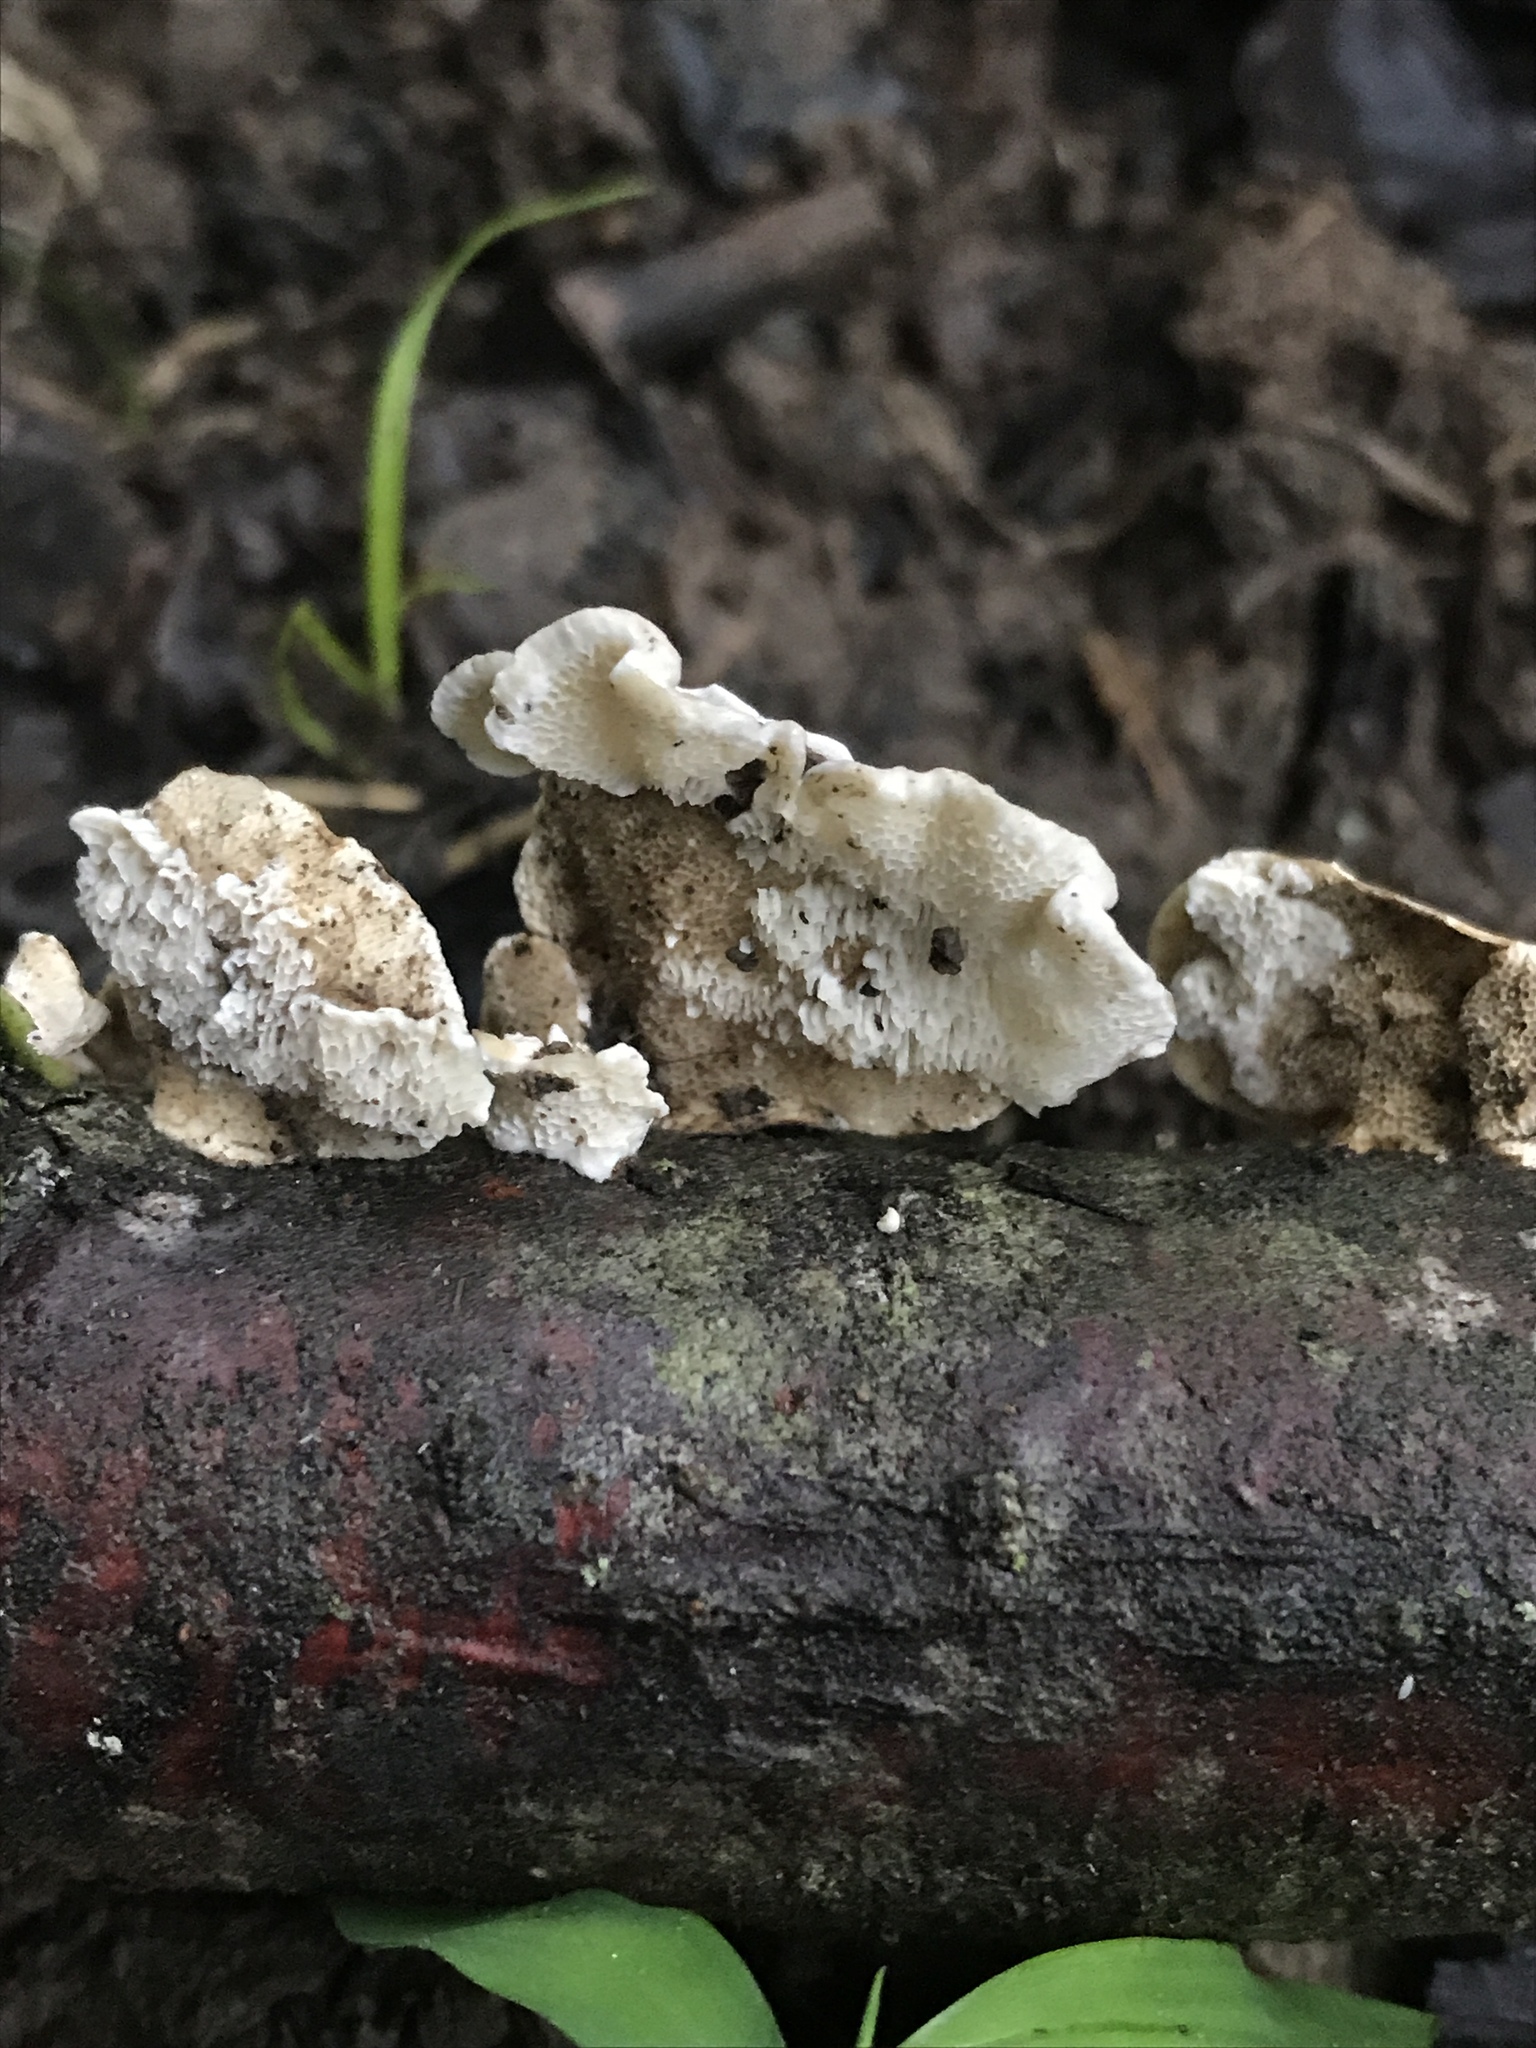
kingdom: Fungi
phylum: Basidiomycota
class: Agaricomycetes
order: Polyporales
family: Polyporaceae
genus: Poronidulus
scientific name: Poronidulus conchifer
